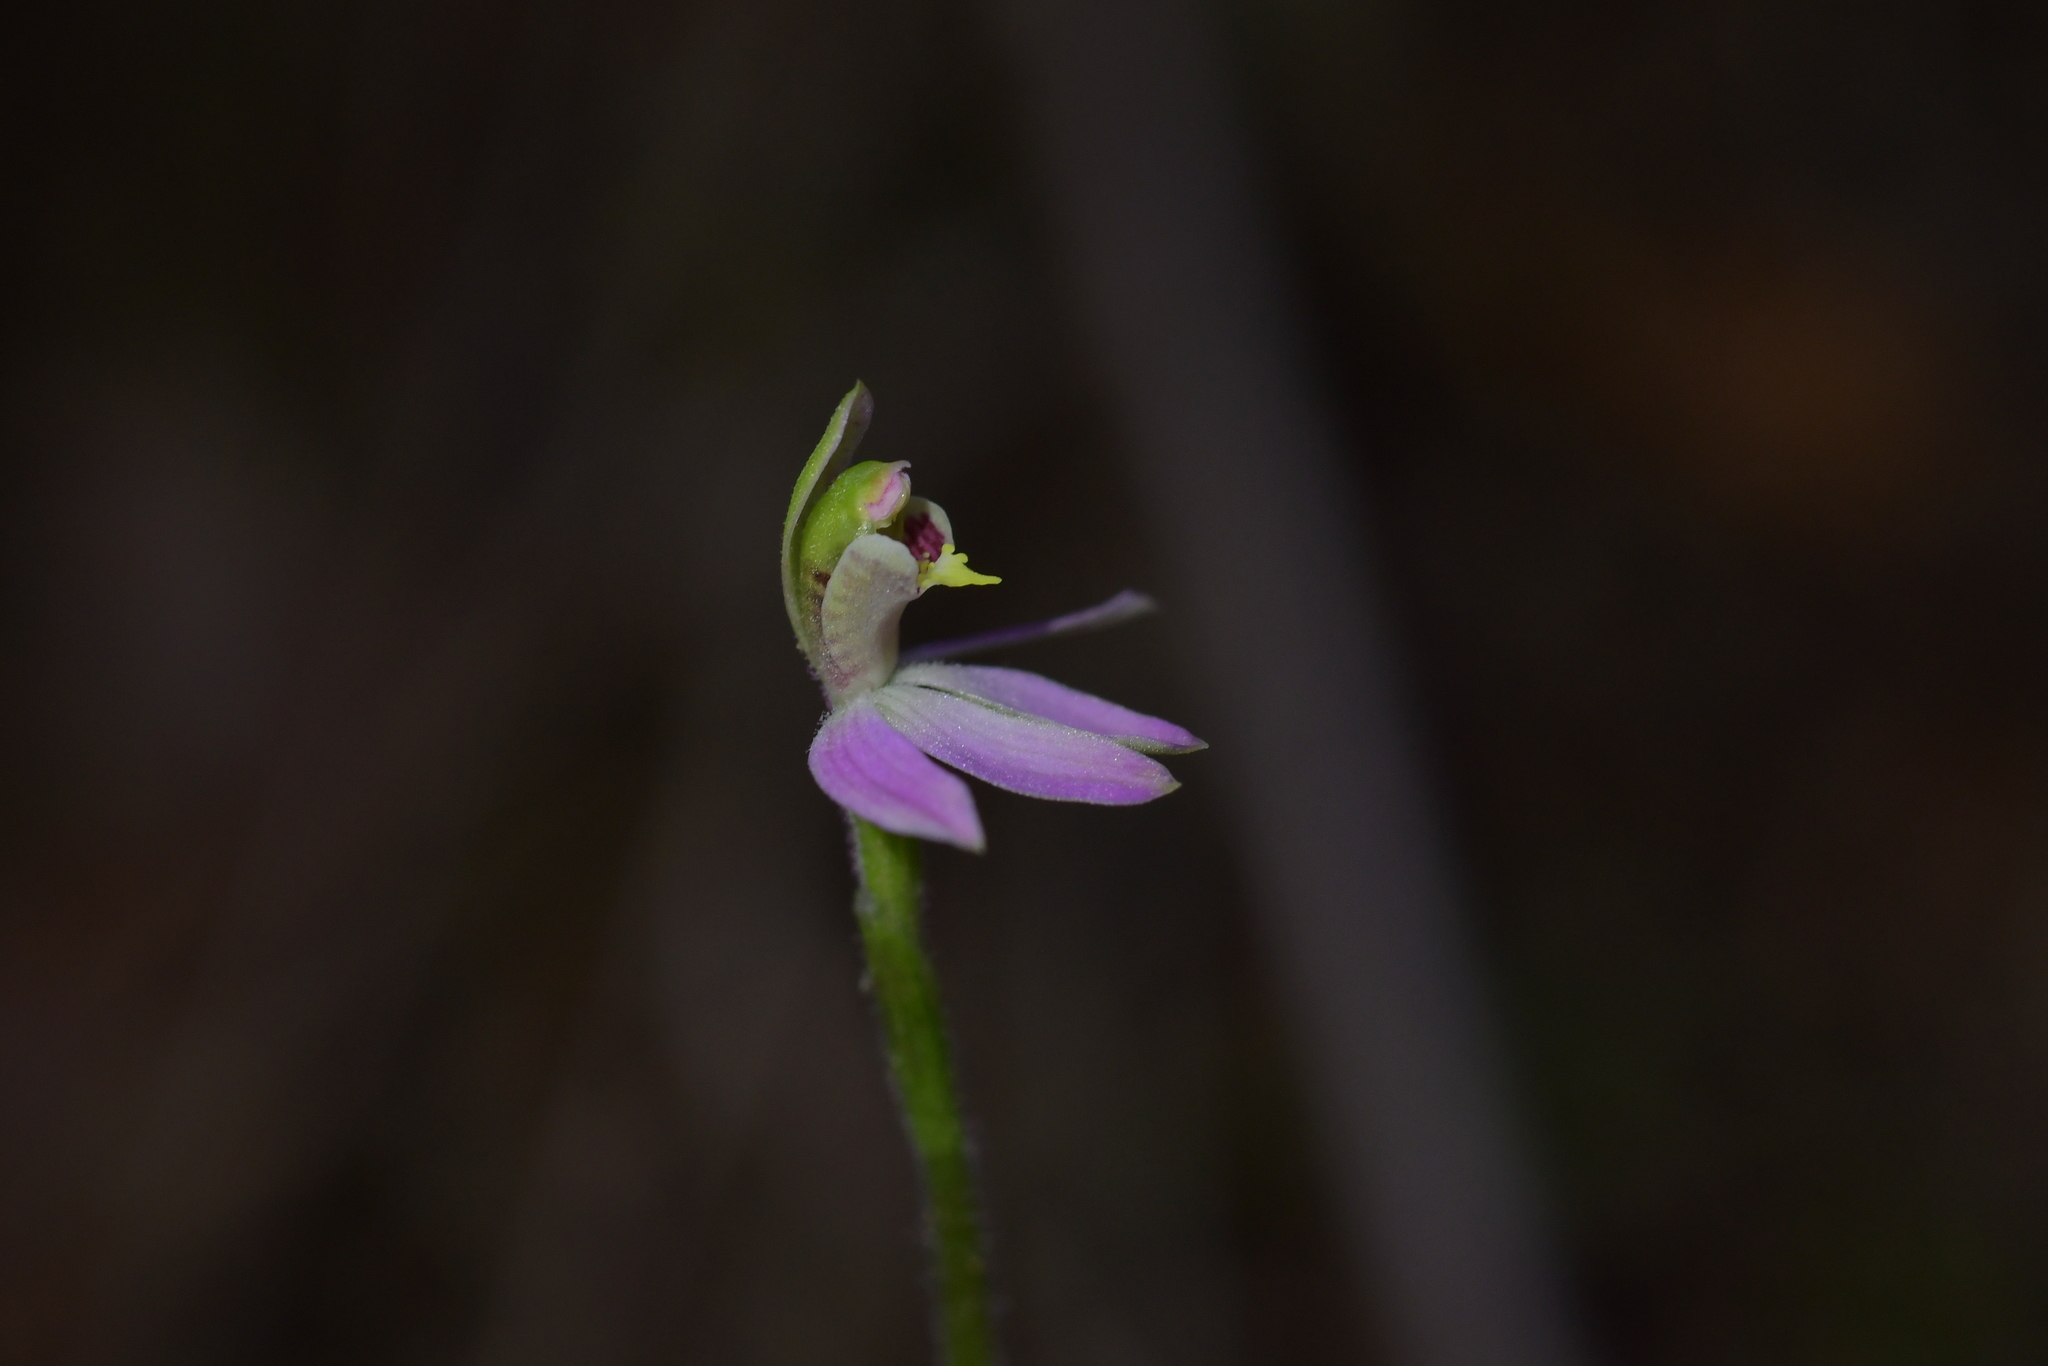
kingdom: Plantae
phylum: Tracheophyta
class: Liliopsida
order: Asparagales
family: Orchidaceae
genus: Caladenia
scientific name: Caladenia variegata
